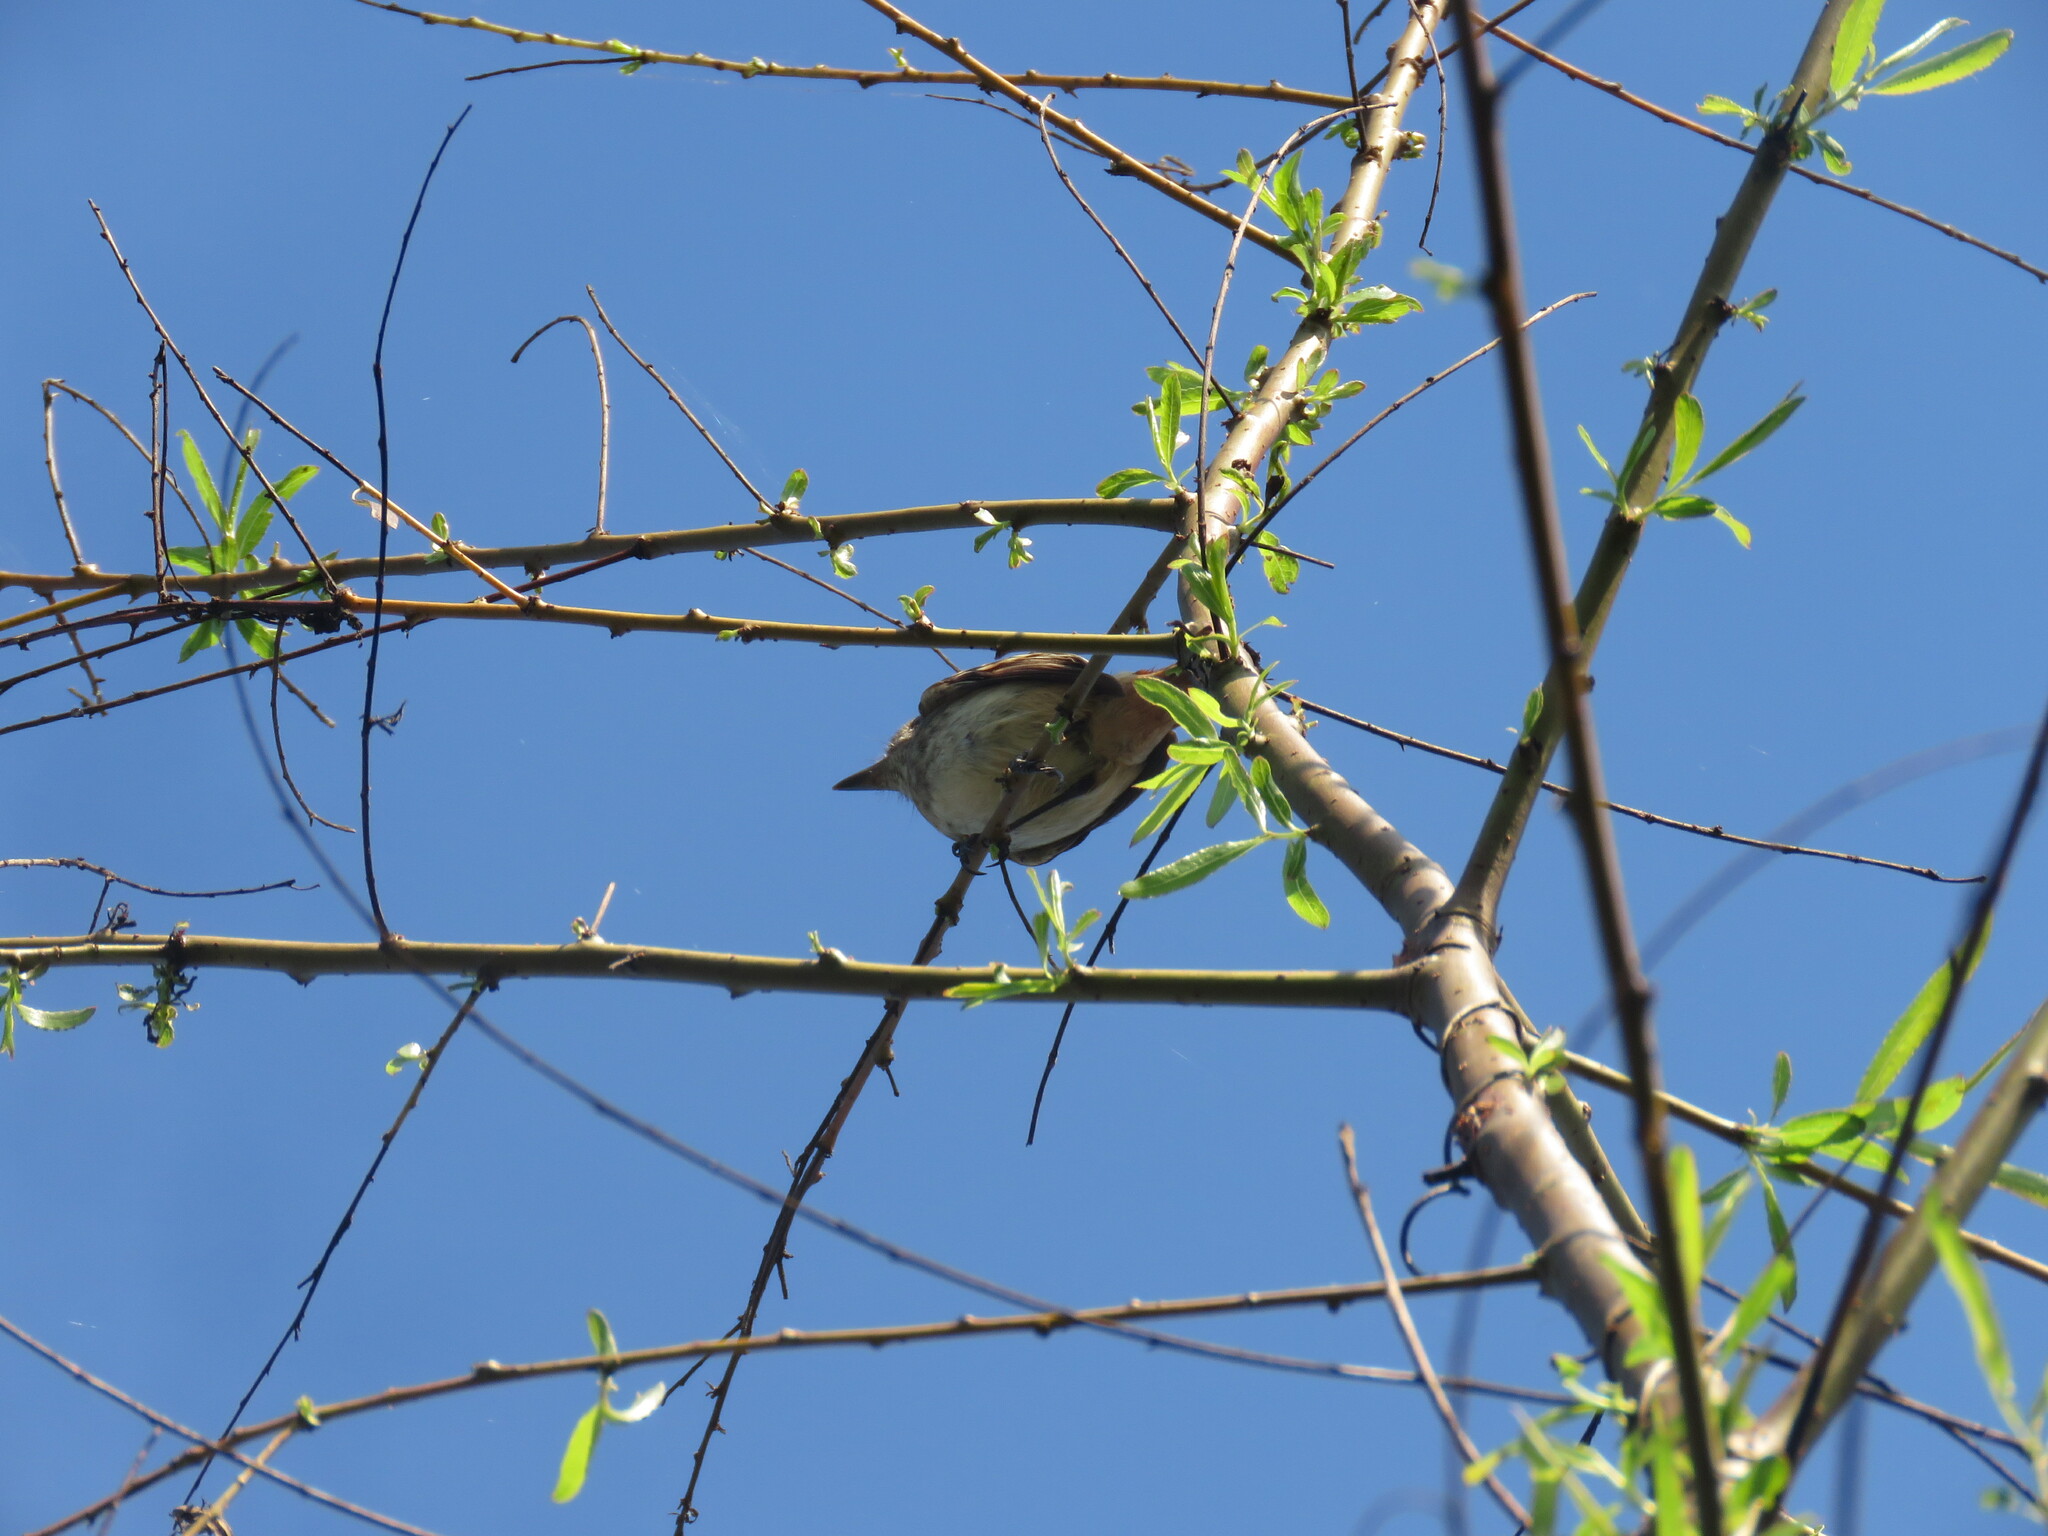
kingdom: Animalia
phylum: Chordata
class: Aves
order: Passeriformes
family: Tyrannidae
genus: Knipolegus
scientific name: Knipolegus hudsoni
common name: Hudson's black tyrant
